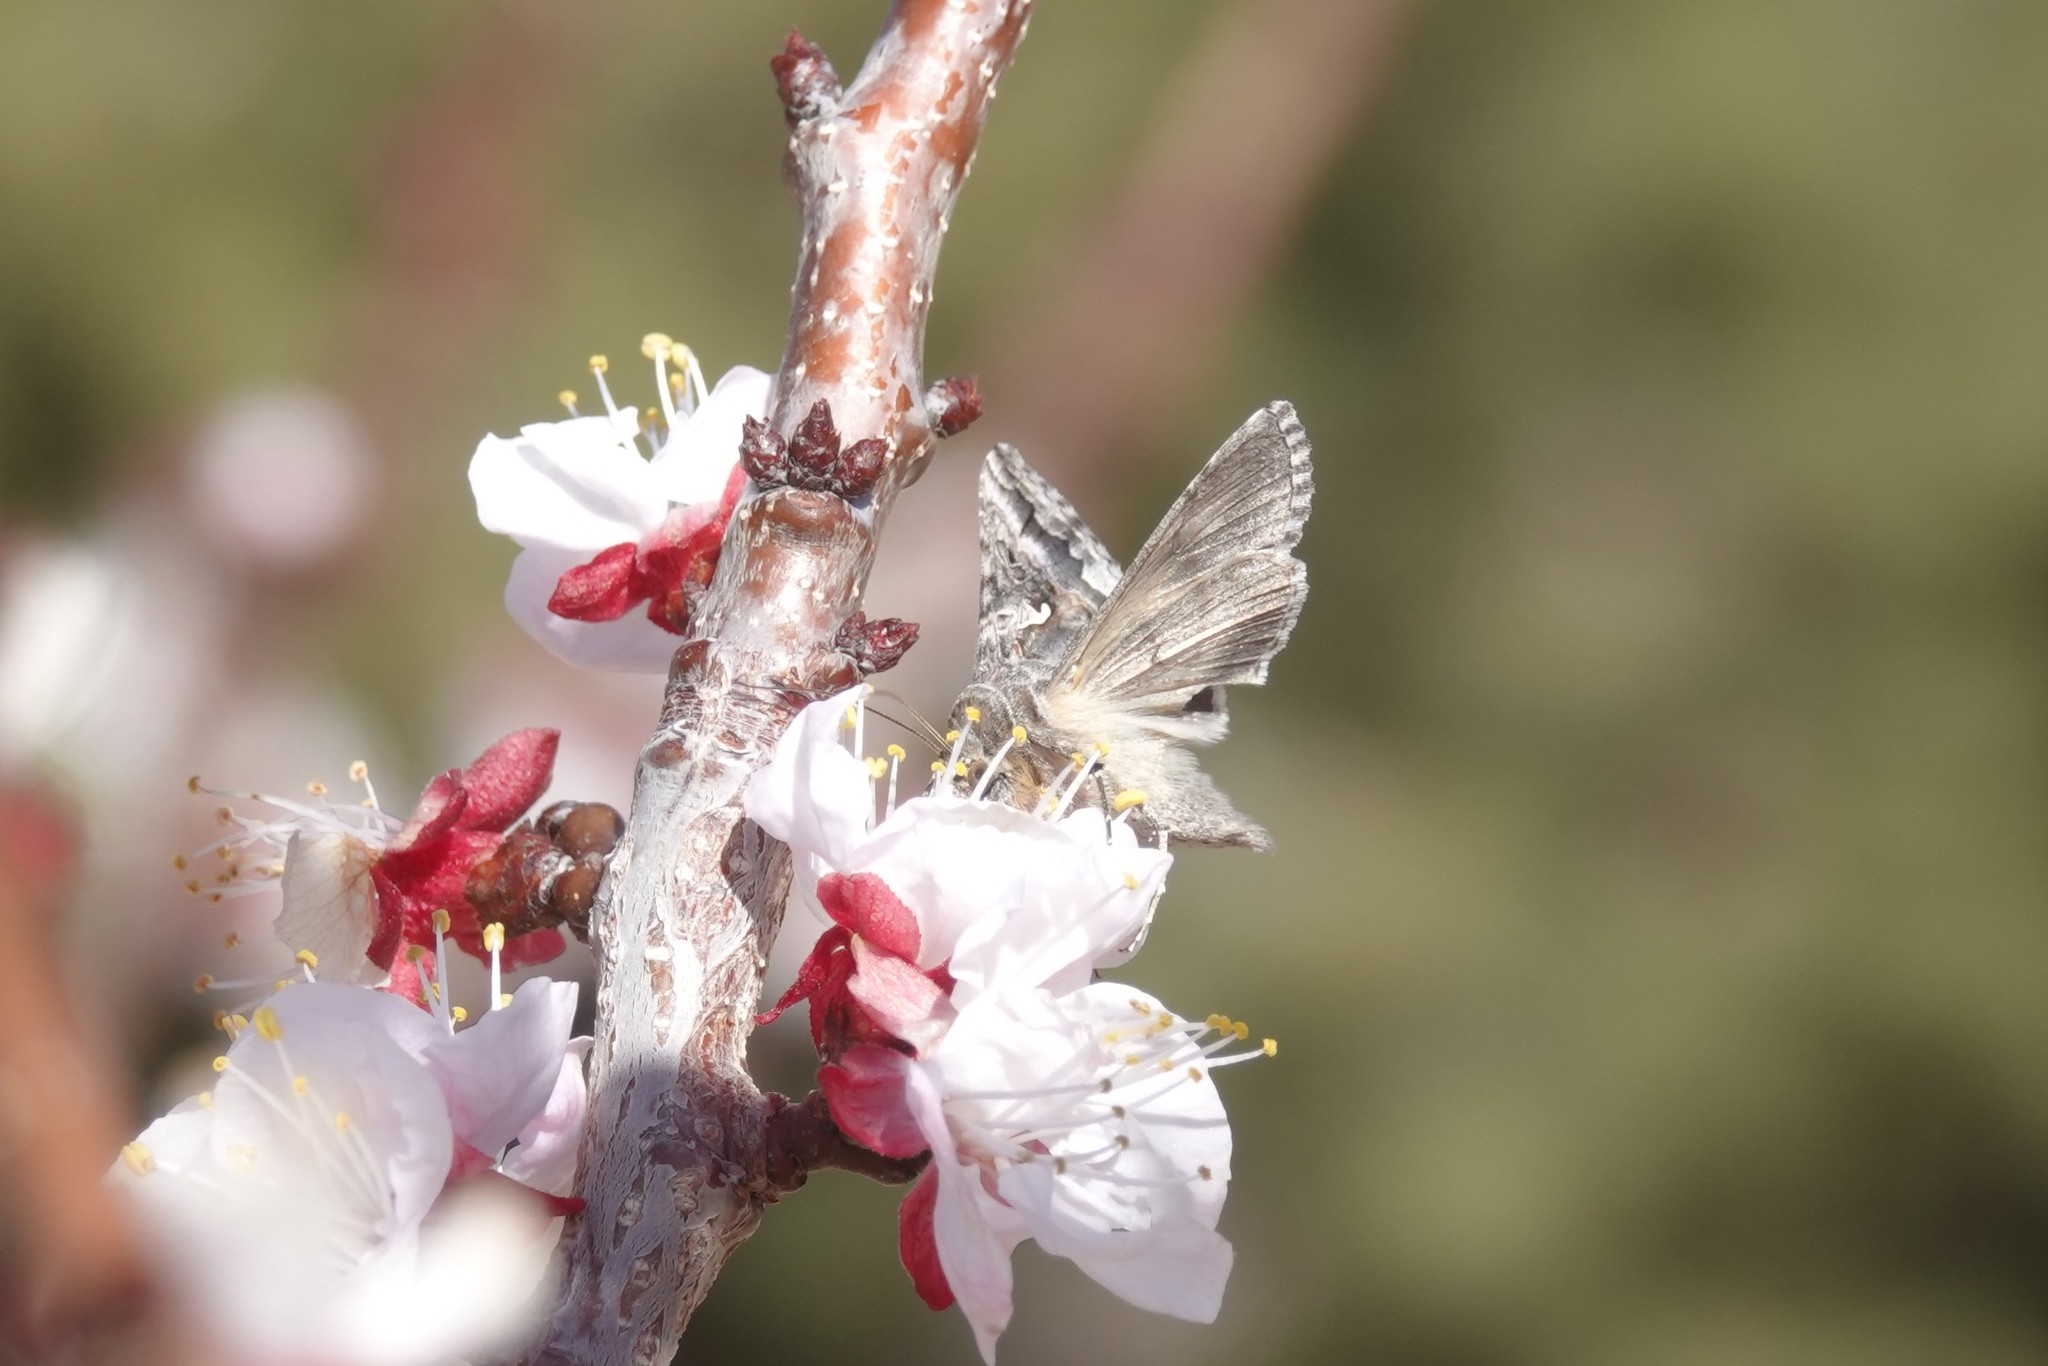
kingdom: Animalia
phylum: Arthropoda
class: Insecta
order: Lepidoptera
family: Noctuidae
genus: Autographa
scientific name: Autographa californica
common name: Alfalfa looper
